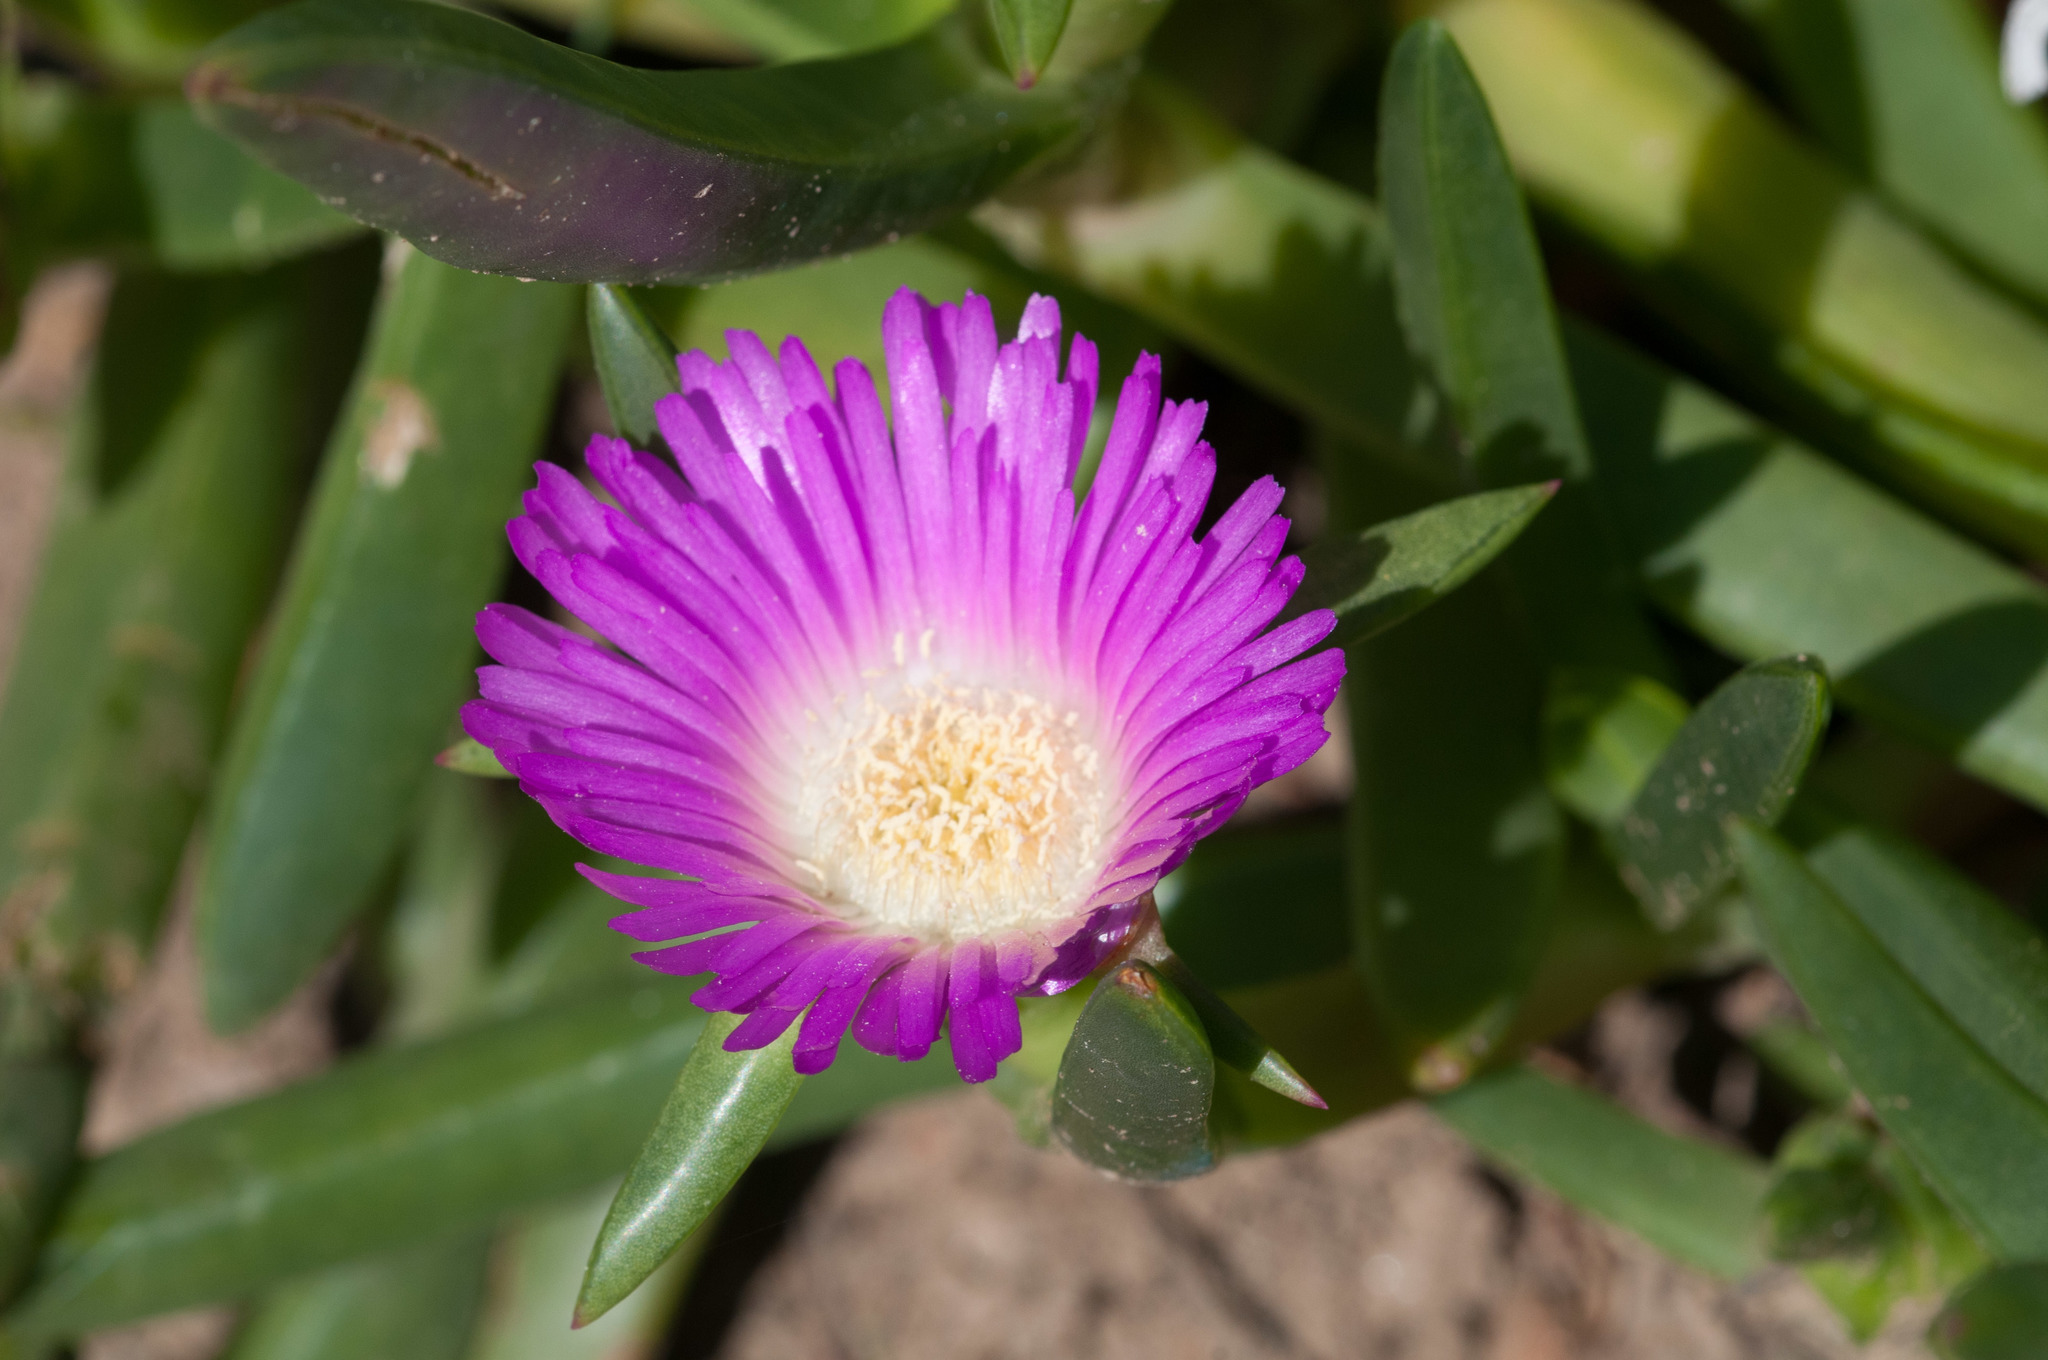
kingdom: Plantae
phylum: Tracheophyta
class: Magnoliopsida
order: Caryophyllales
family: Aizoaceae
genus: Carpobrotus
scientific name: Carpobrotus rossii
